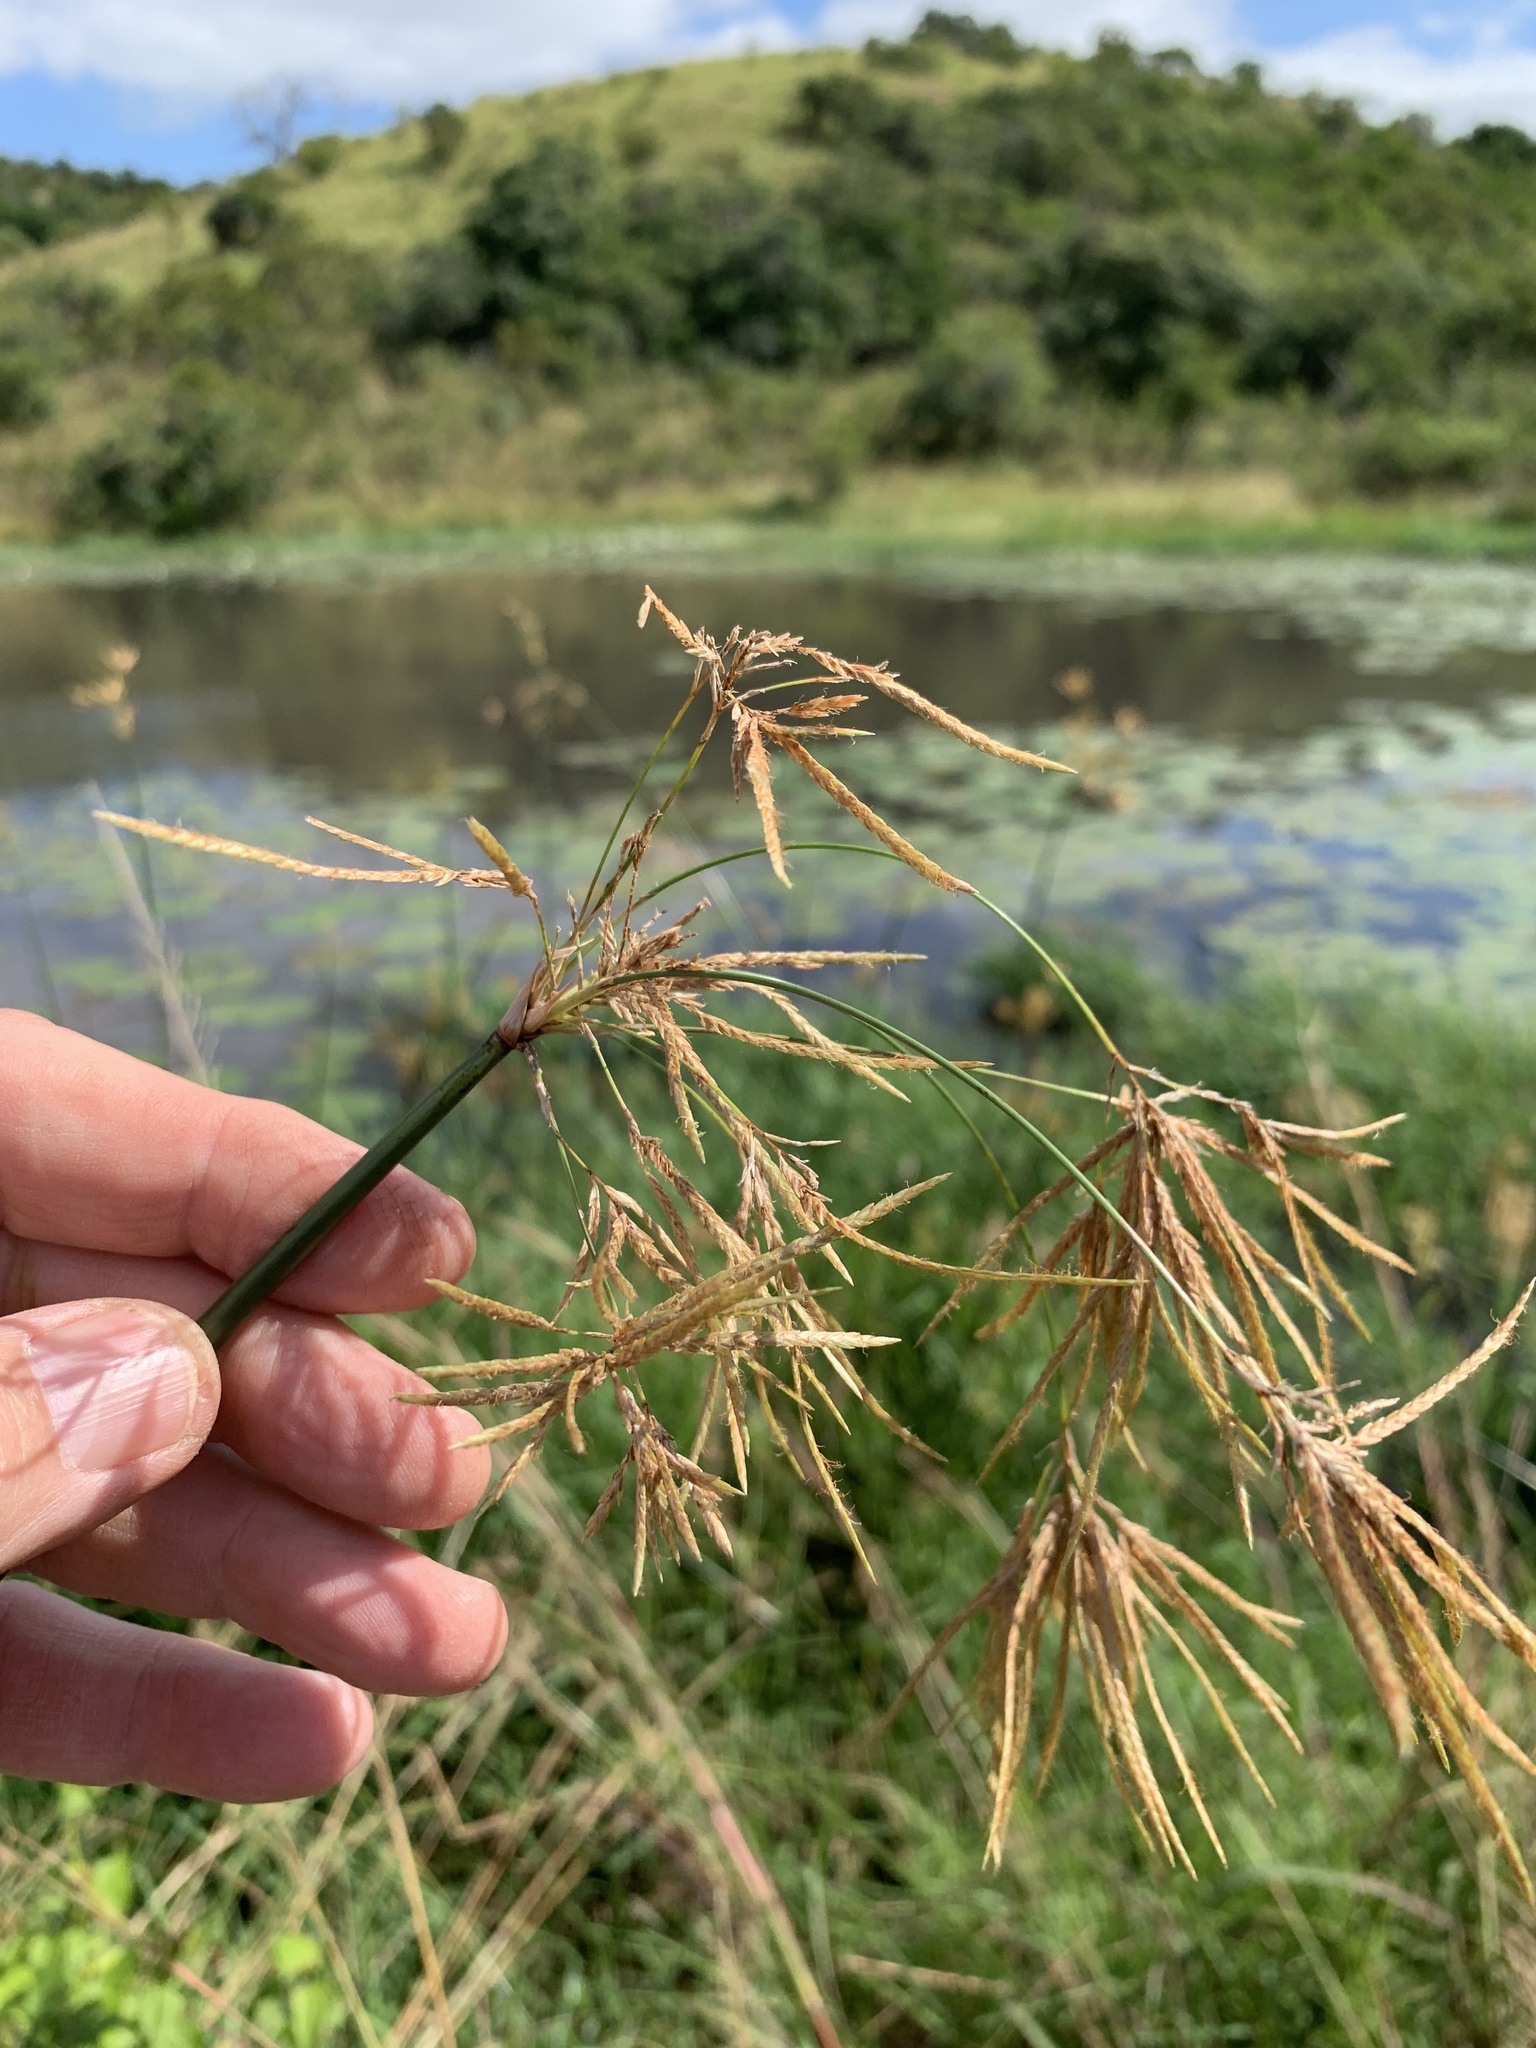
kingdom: Plantae
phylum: Tracheophyta
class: Liliopsida
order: Poales
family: Cyperaceae
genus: Cyperus
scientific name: Cyperus articulatus
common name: Jointed flatsedge
